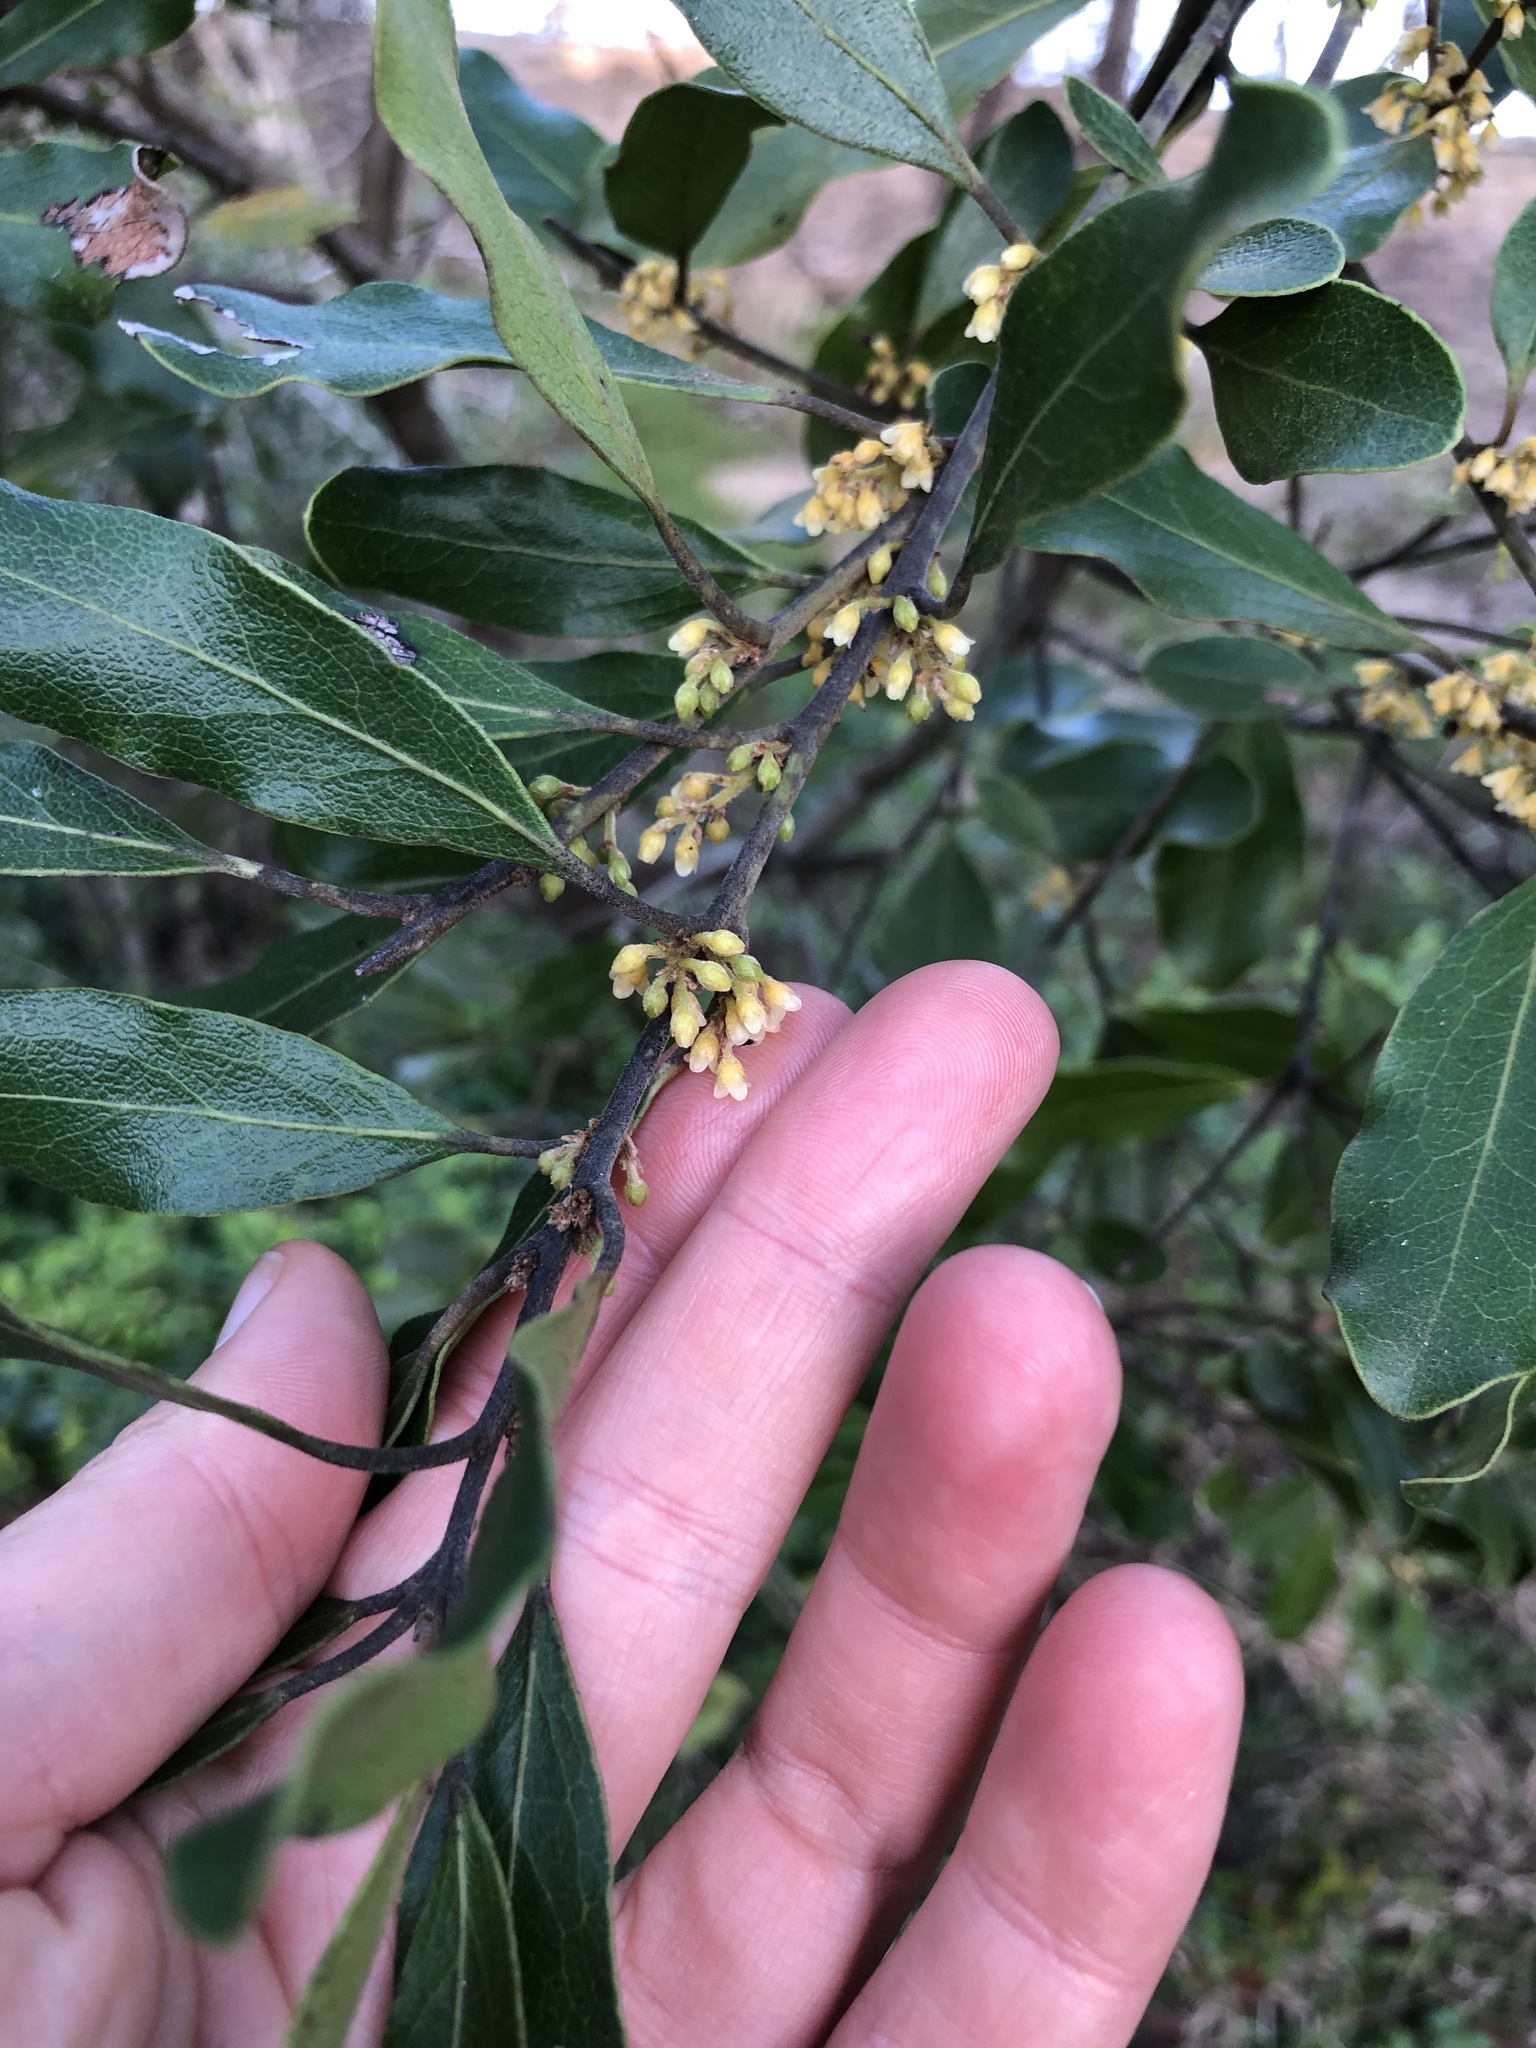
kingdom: Plantae
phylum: Tracheophyta
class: Magnoliopsida
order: Ericales
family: Ebenaceae
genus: Euclea
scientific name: Euclea natalensis
